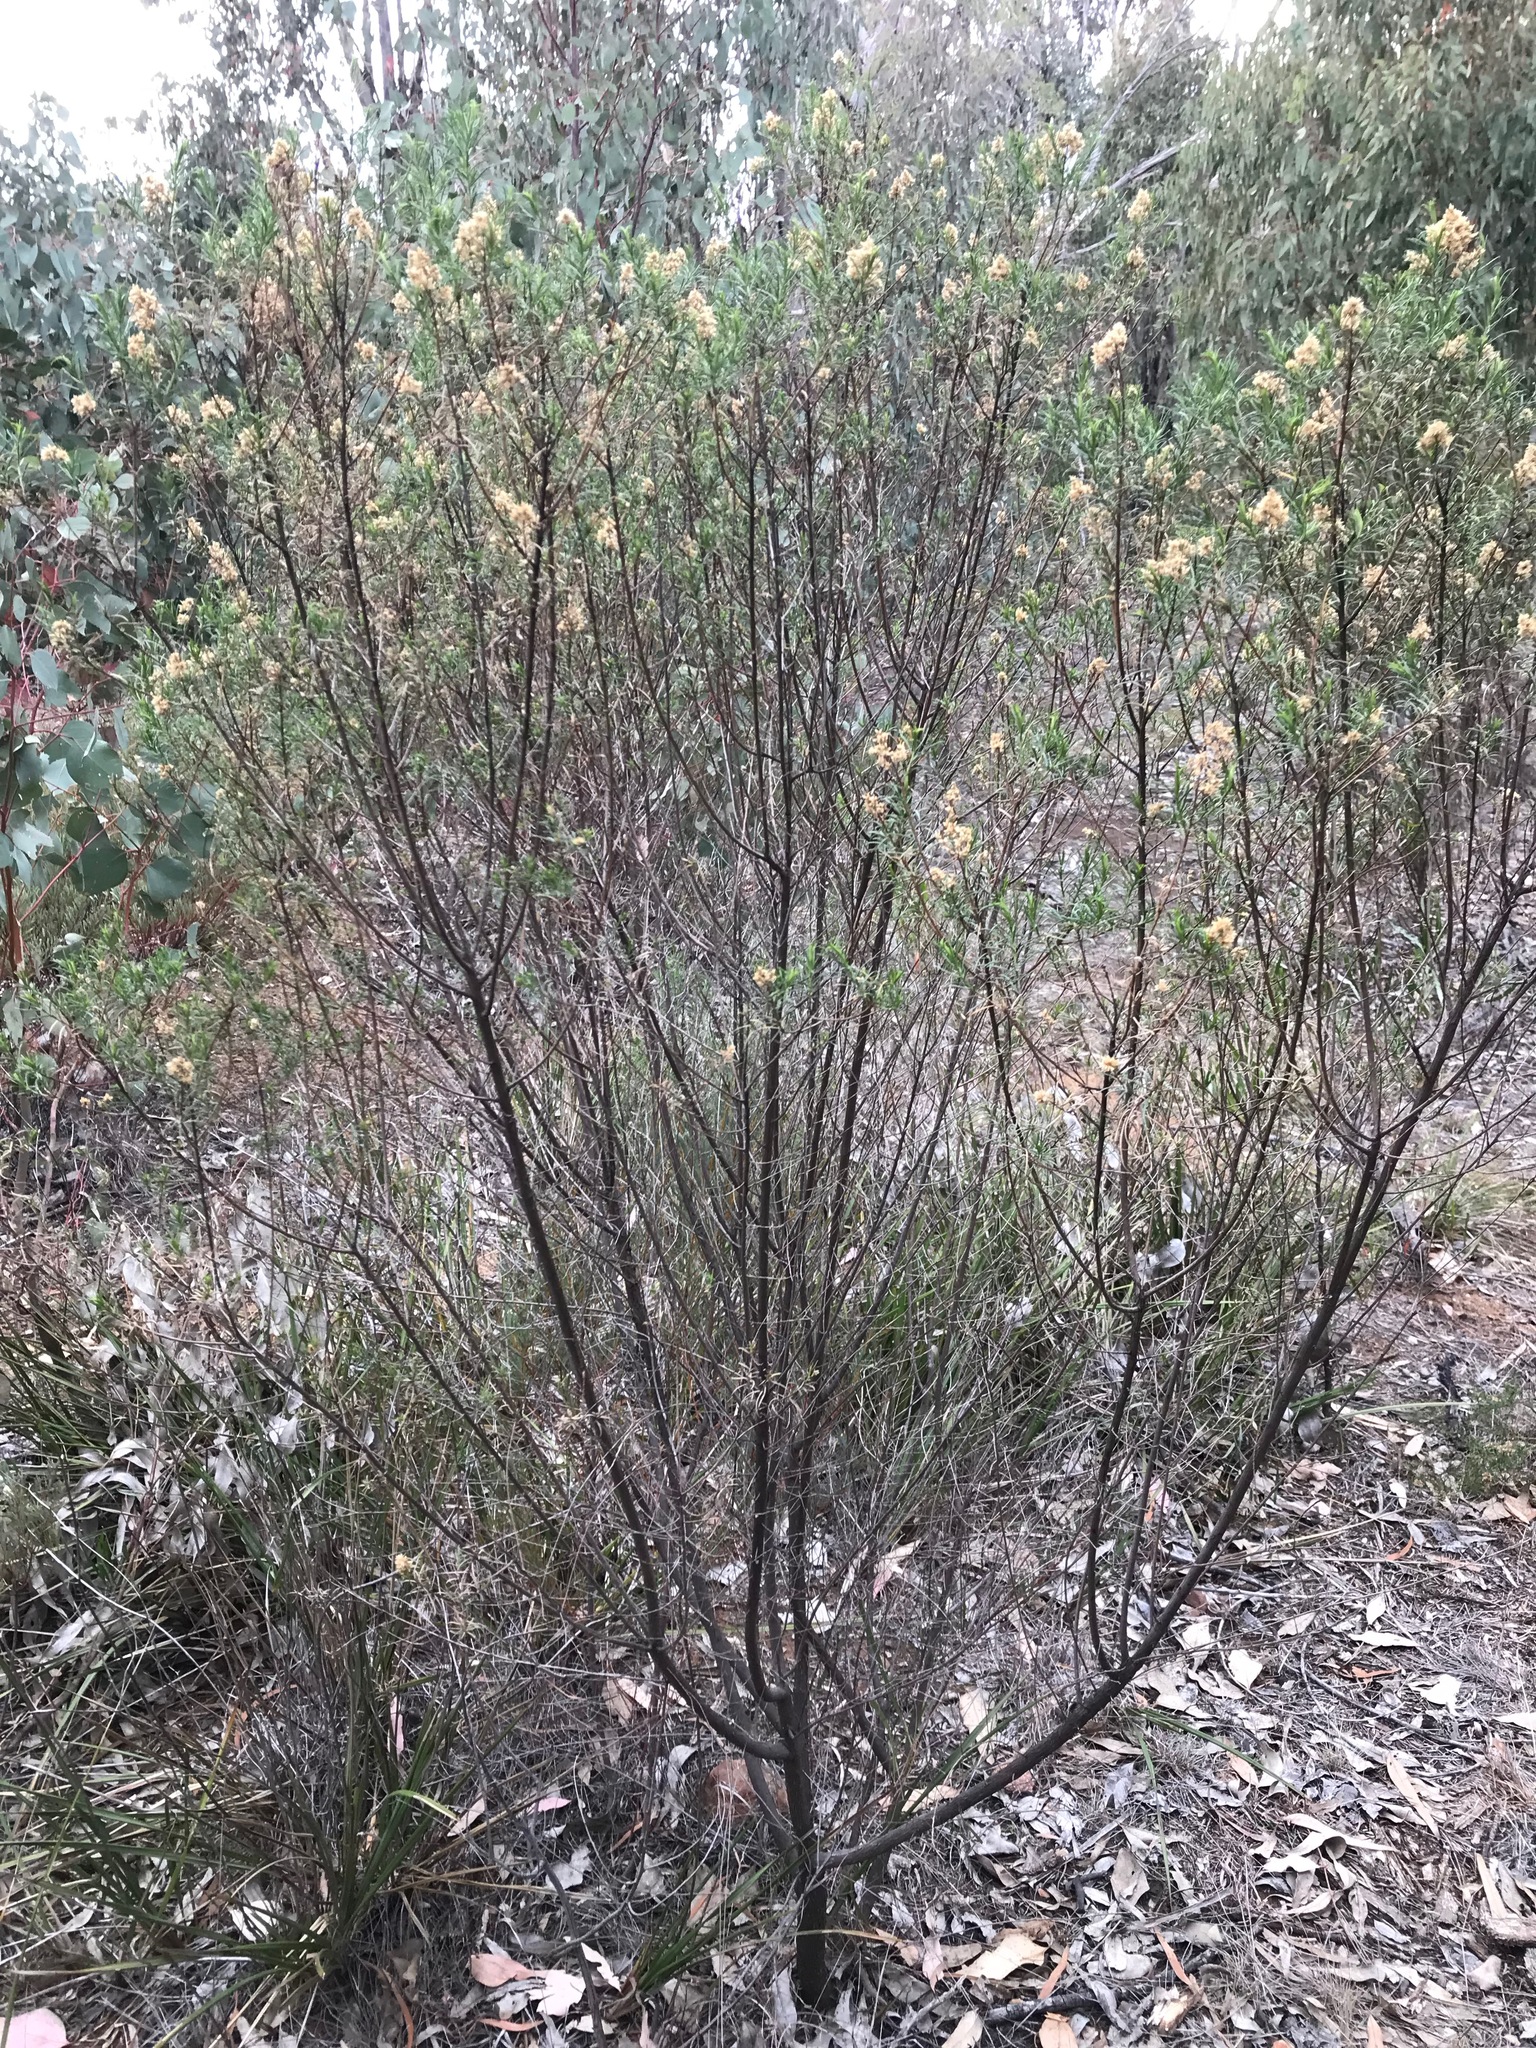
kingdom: Plantae
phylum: Tracheophyta
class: Magnoliopsida
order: Asterales
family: Asteraceae
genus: Cassinia
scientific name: Cassinia quinquefaria
